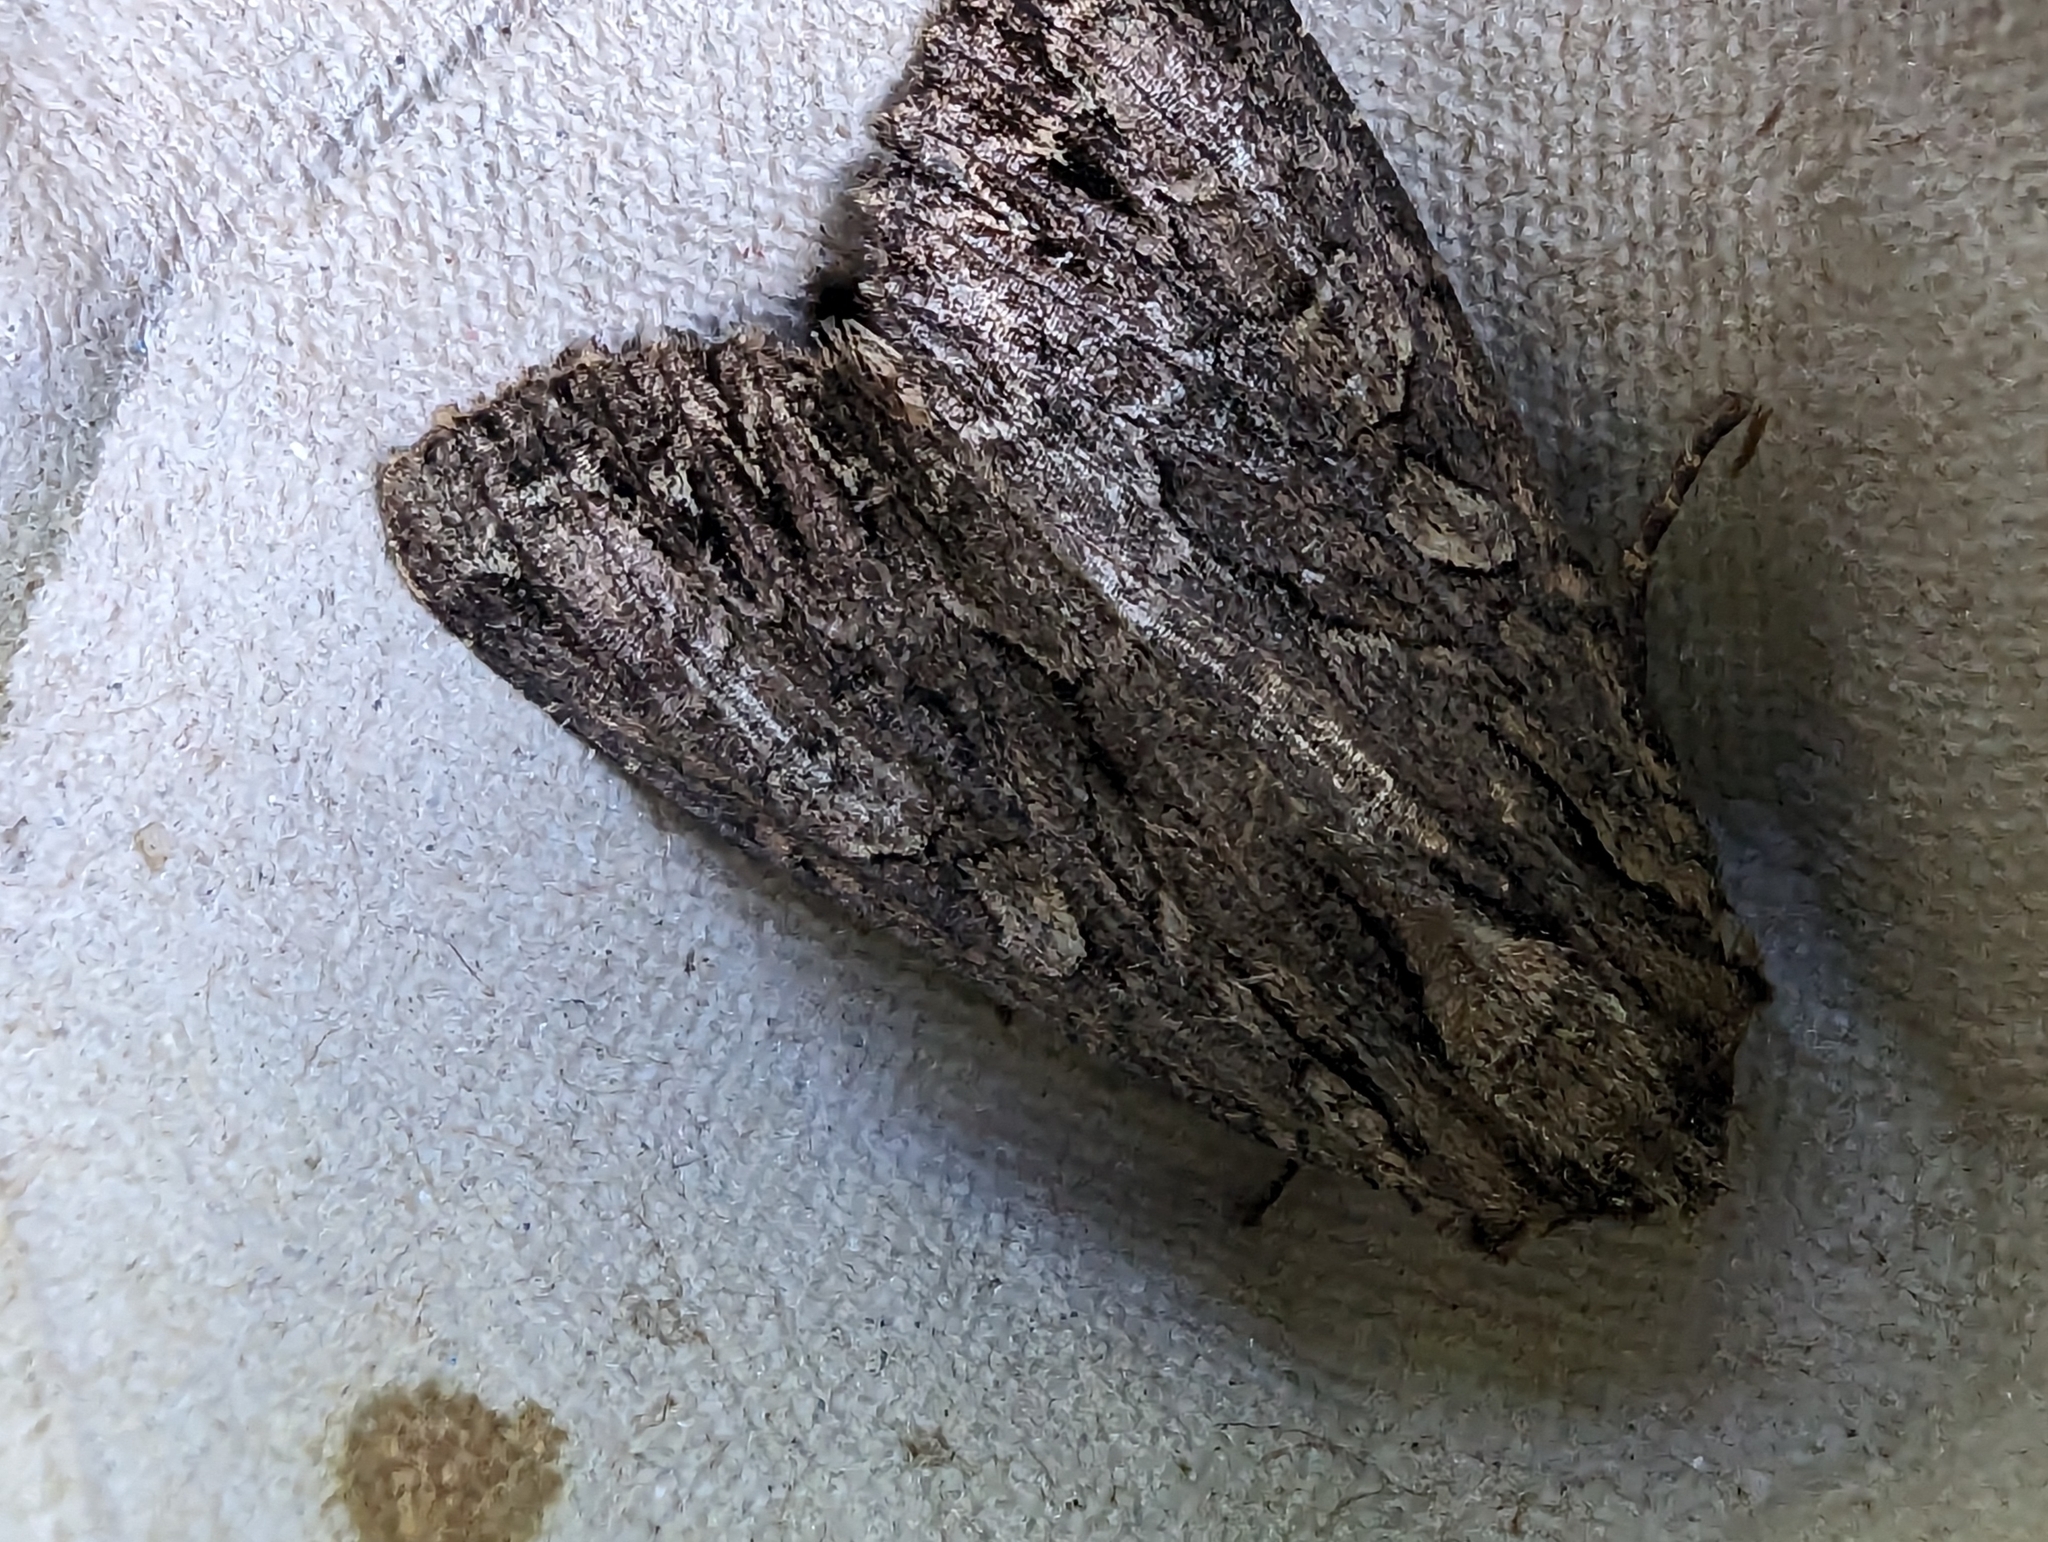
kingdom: Animalia
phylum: Arthropoda
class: Insecta
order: Lepidoptera
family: Noctuidae
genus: Apamea
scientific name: Apamea monoglypha
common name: Dark arches
